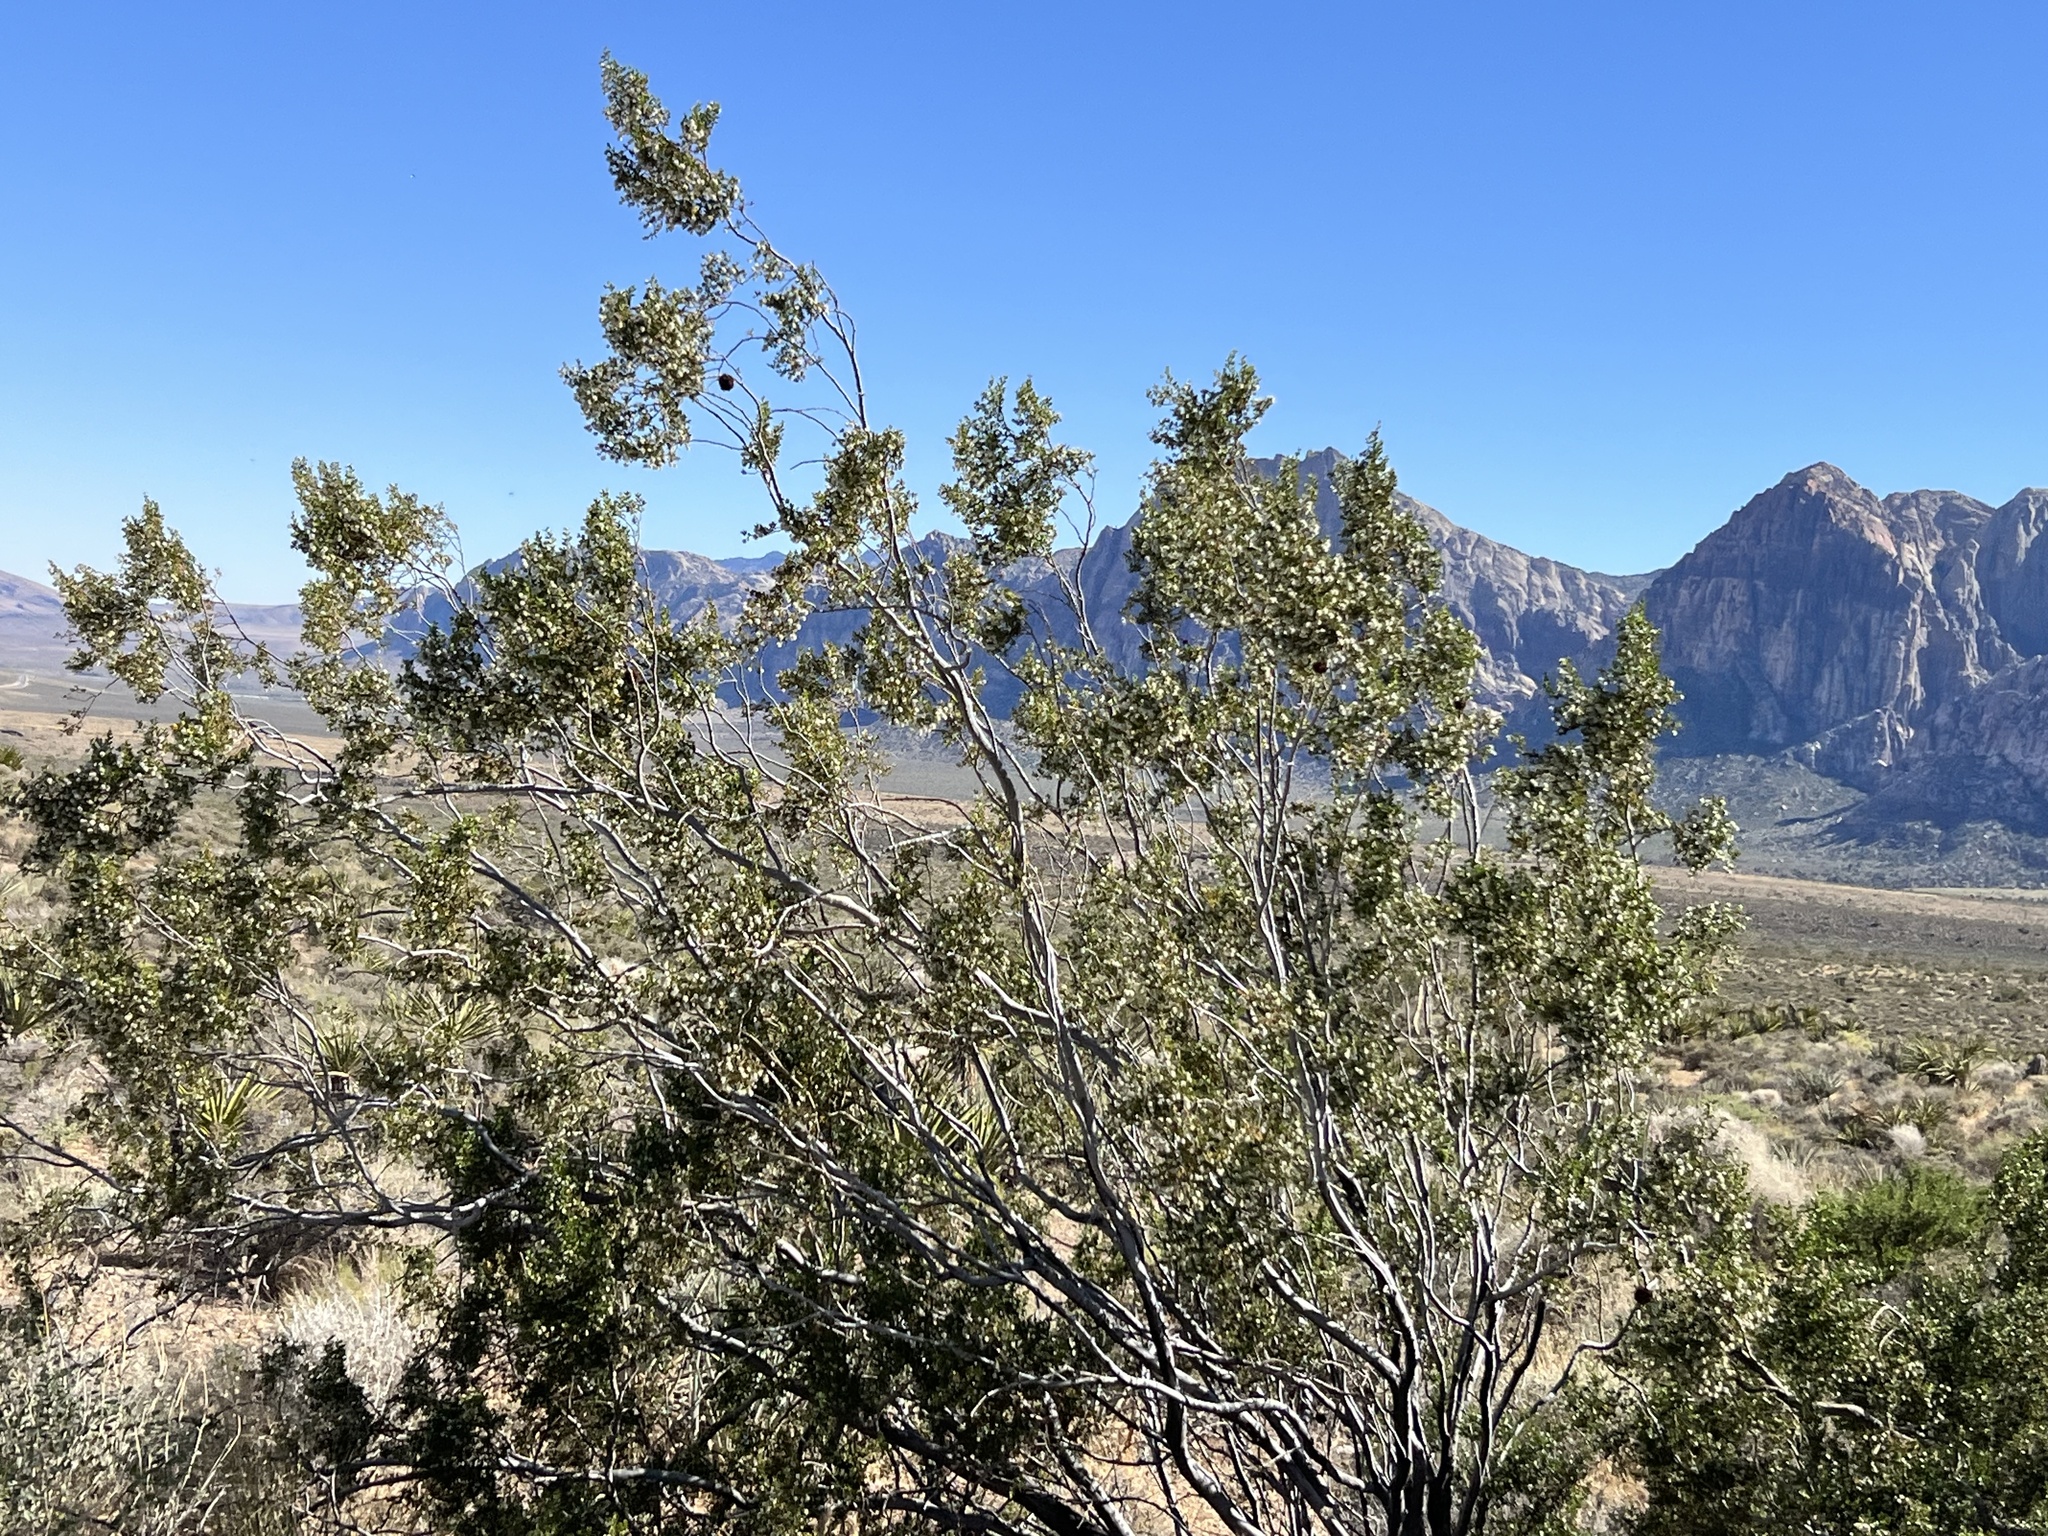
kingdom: Plantae
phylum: Tracheophyta
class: Magnoliopsida
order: Zygophyllales
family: Zygophyllaceae
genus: Larrea
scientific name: Larrea tridentata
